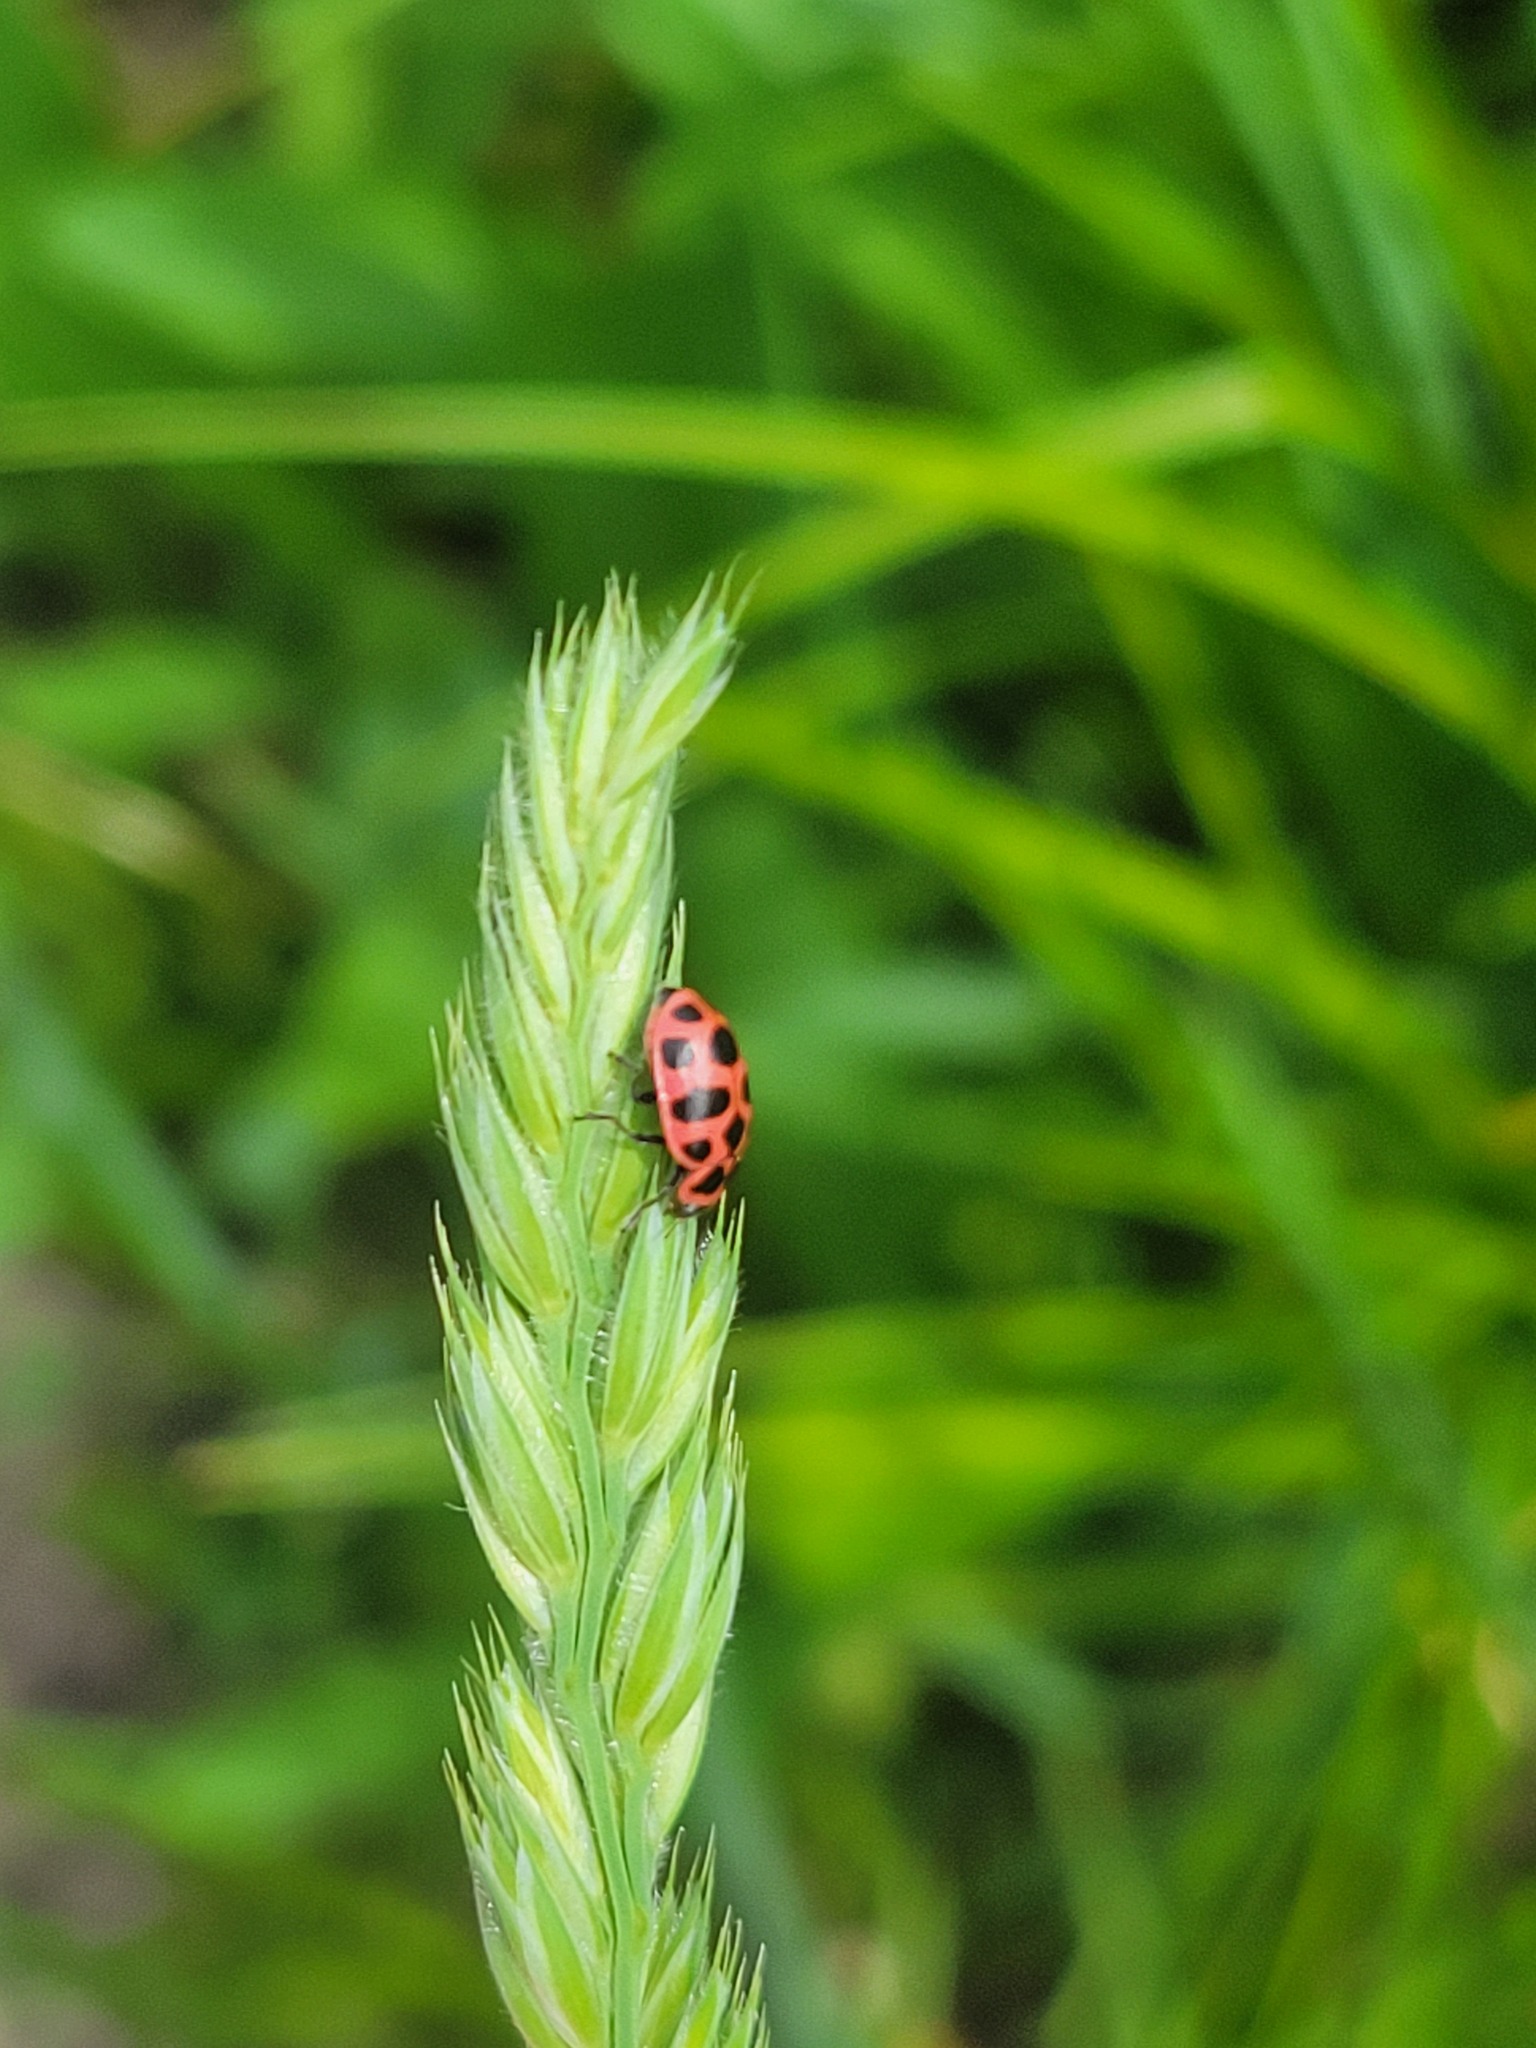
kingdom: Animalia
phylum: Arthropoda
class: Insecta
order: Coleoptera
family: Coccinellidae
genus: Coleomegilla
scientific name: Coleomegilla maculata
